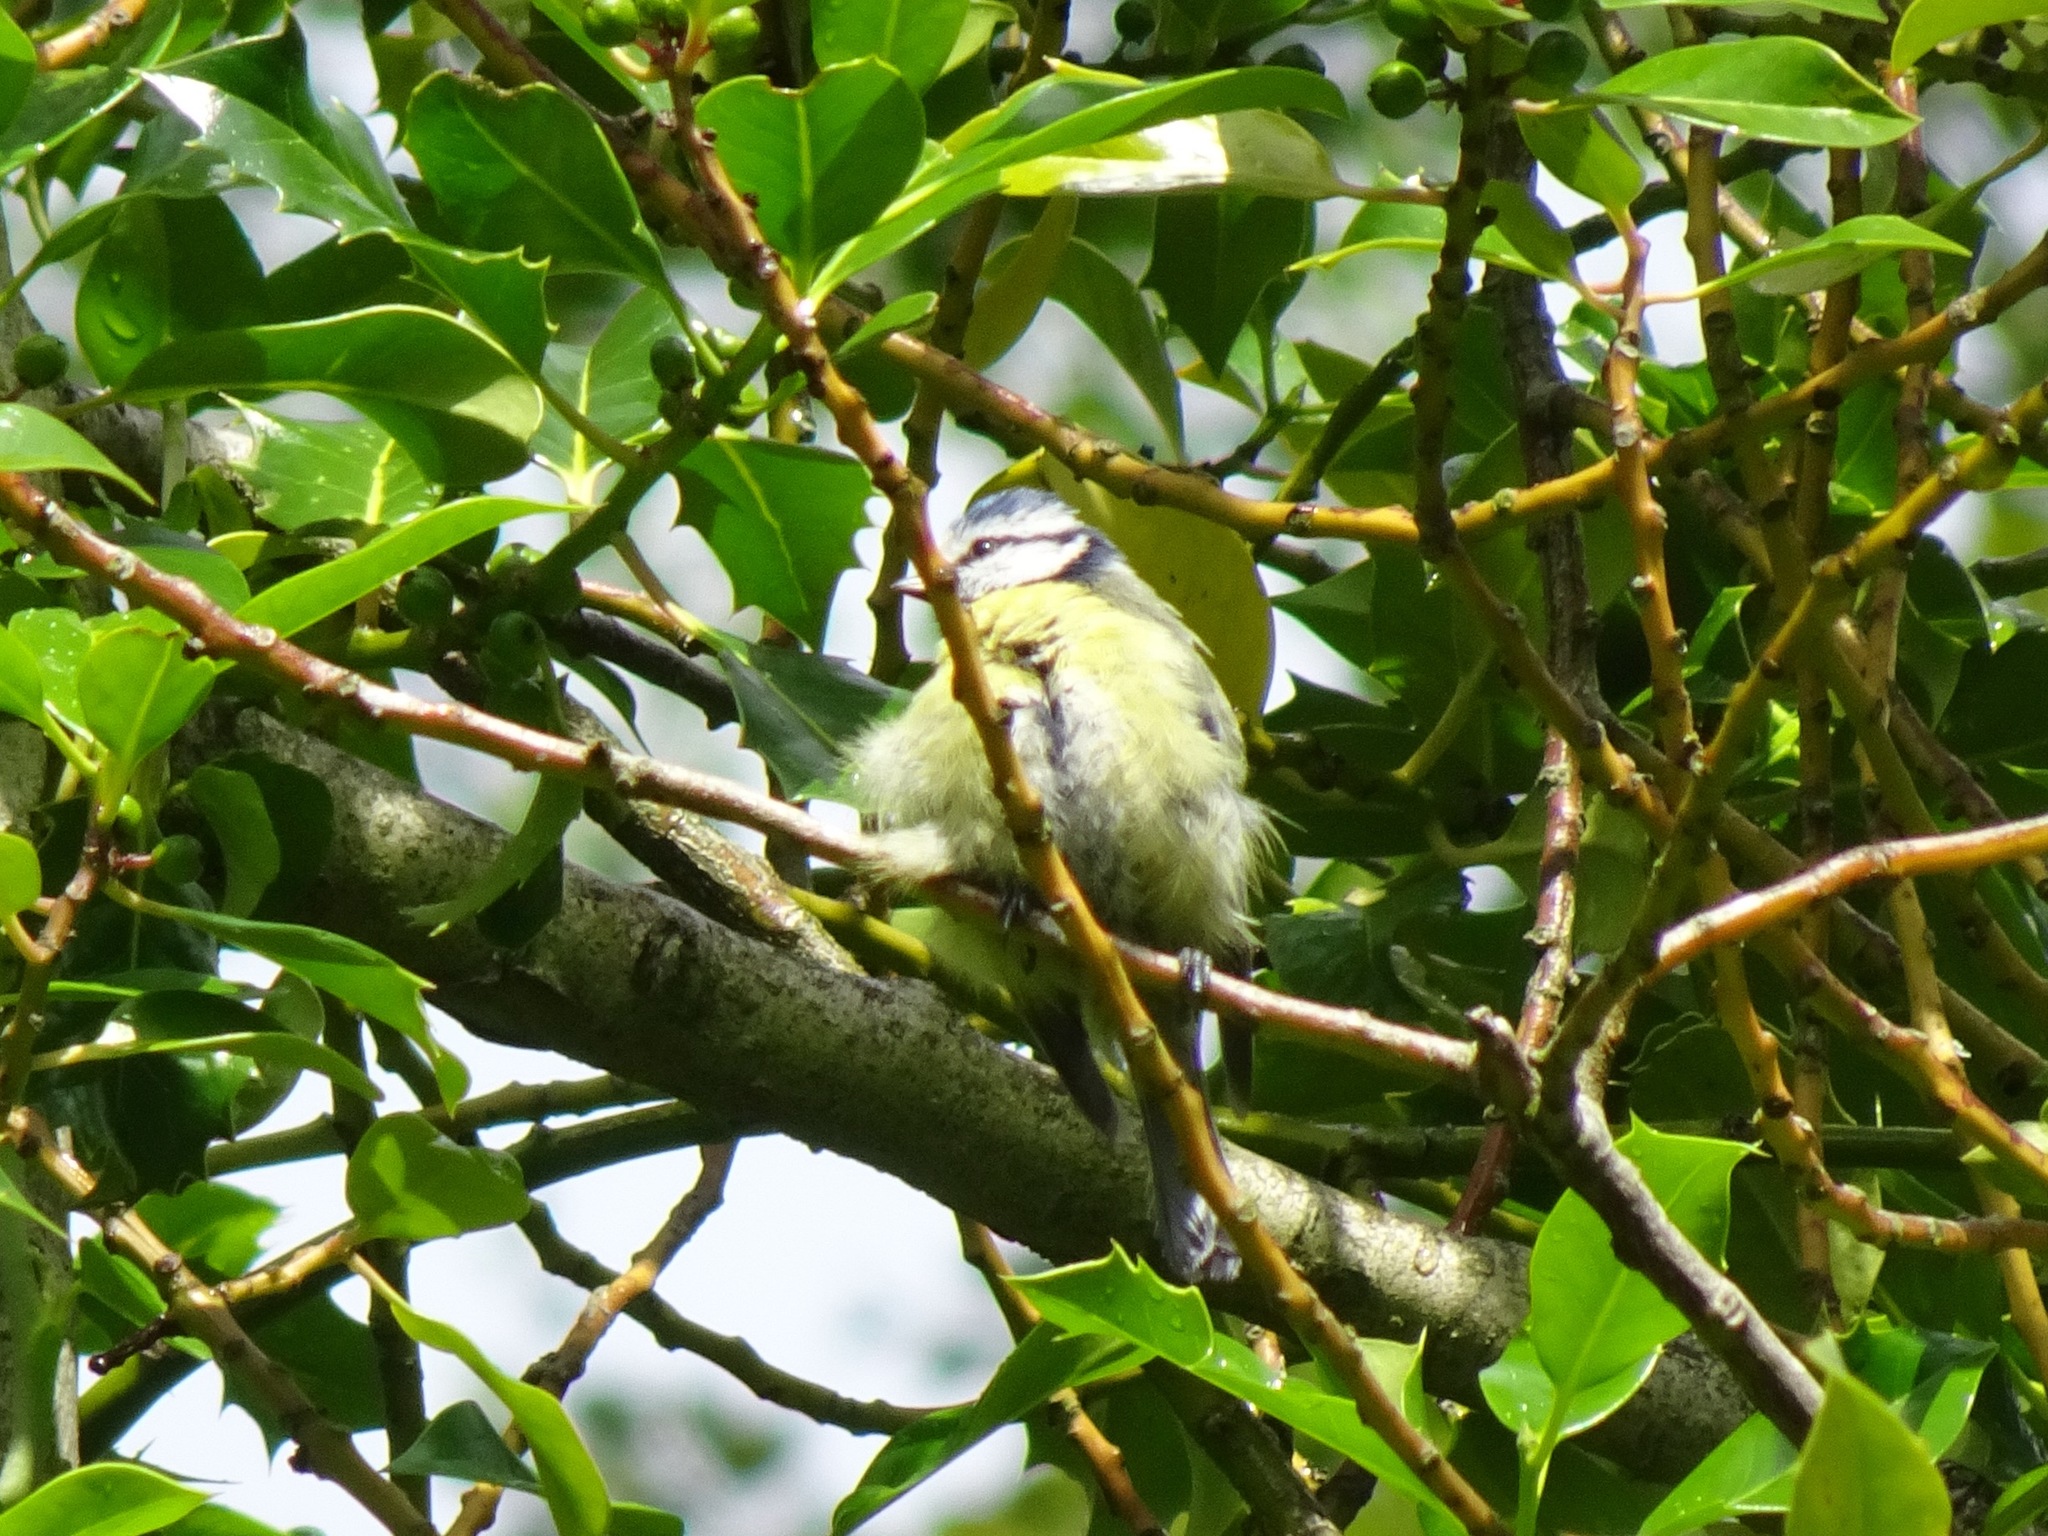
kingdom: Animalia
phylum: Chordata
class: Aves
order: Passeriformes
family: Paridae
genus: Cyanistes
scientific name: Cyanistes caeruleus
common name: Eurasian blue tit
